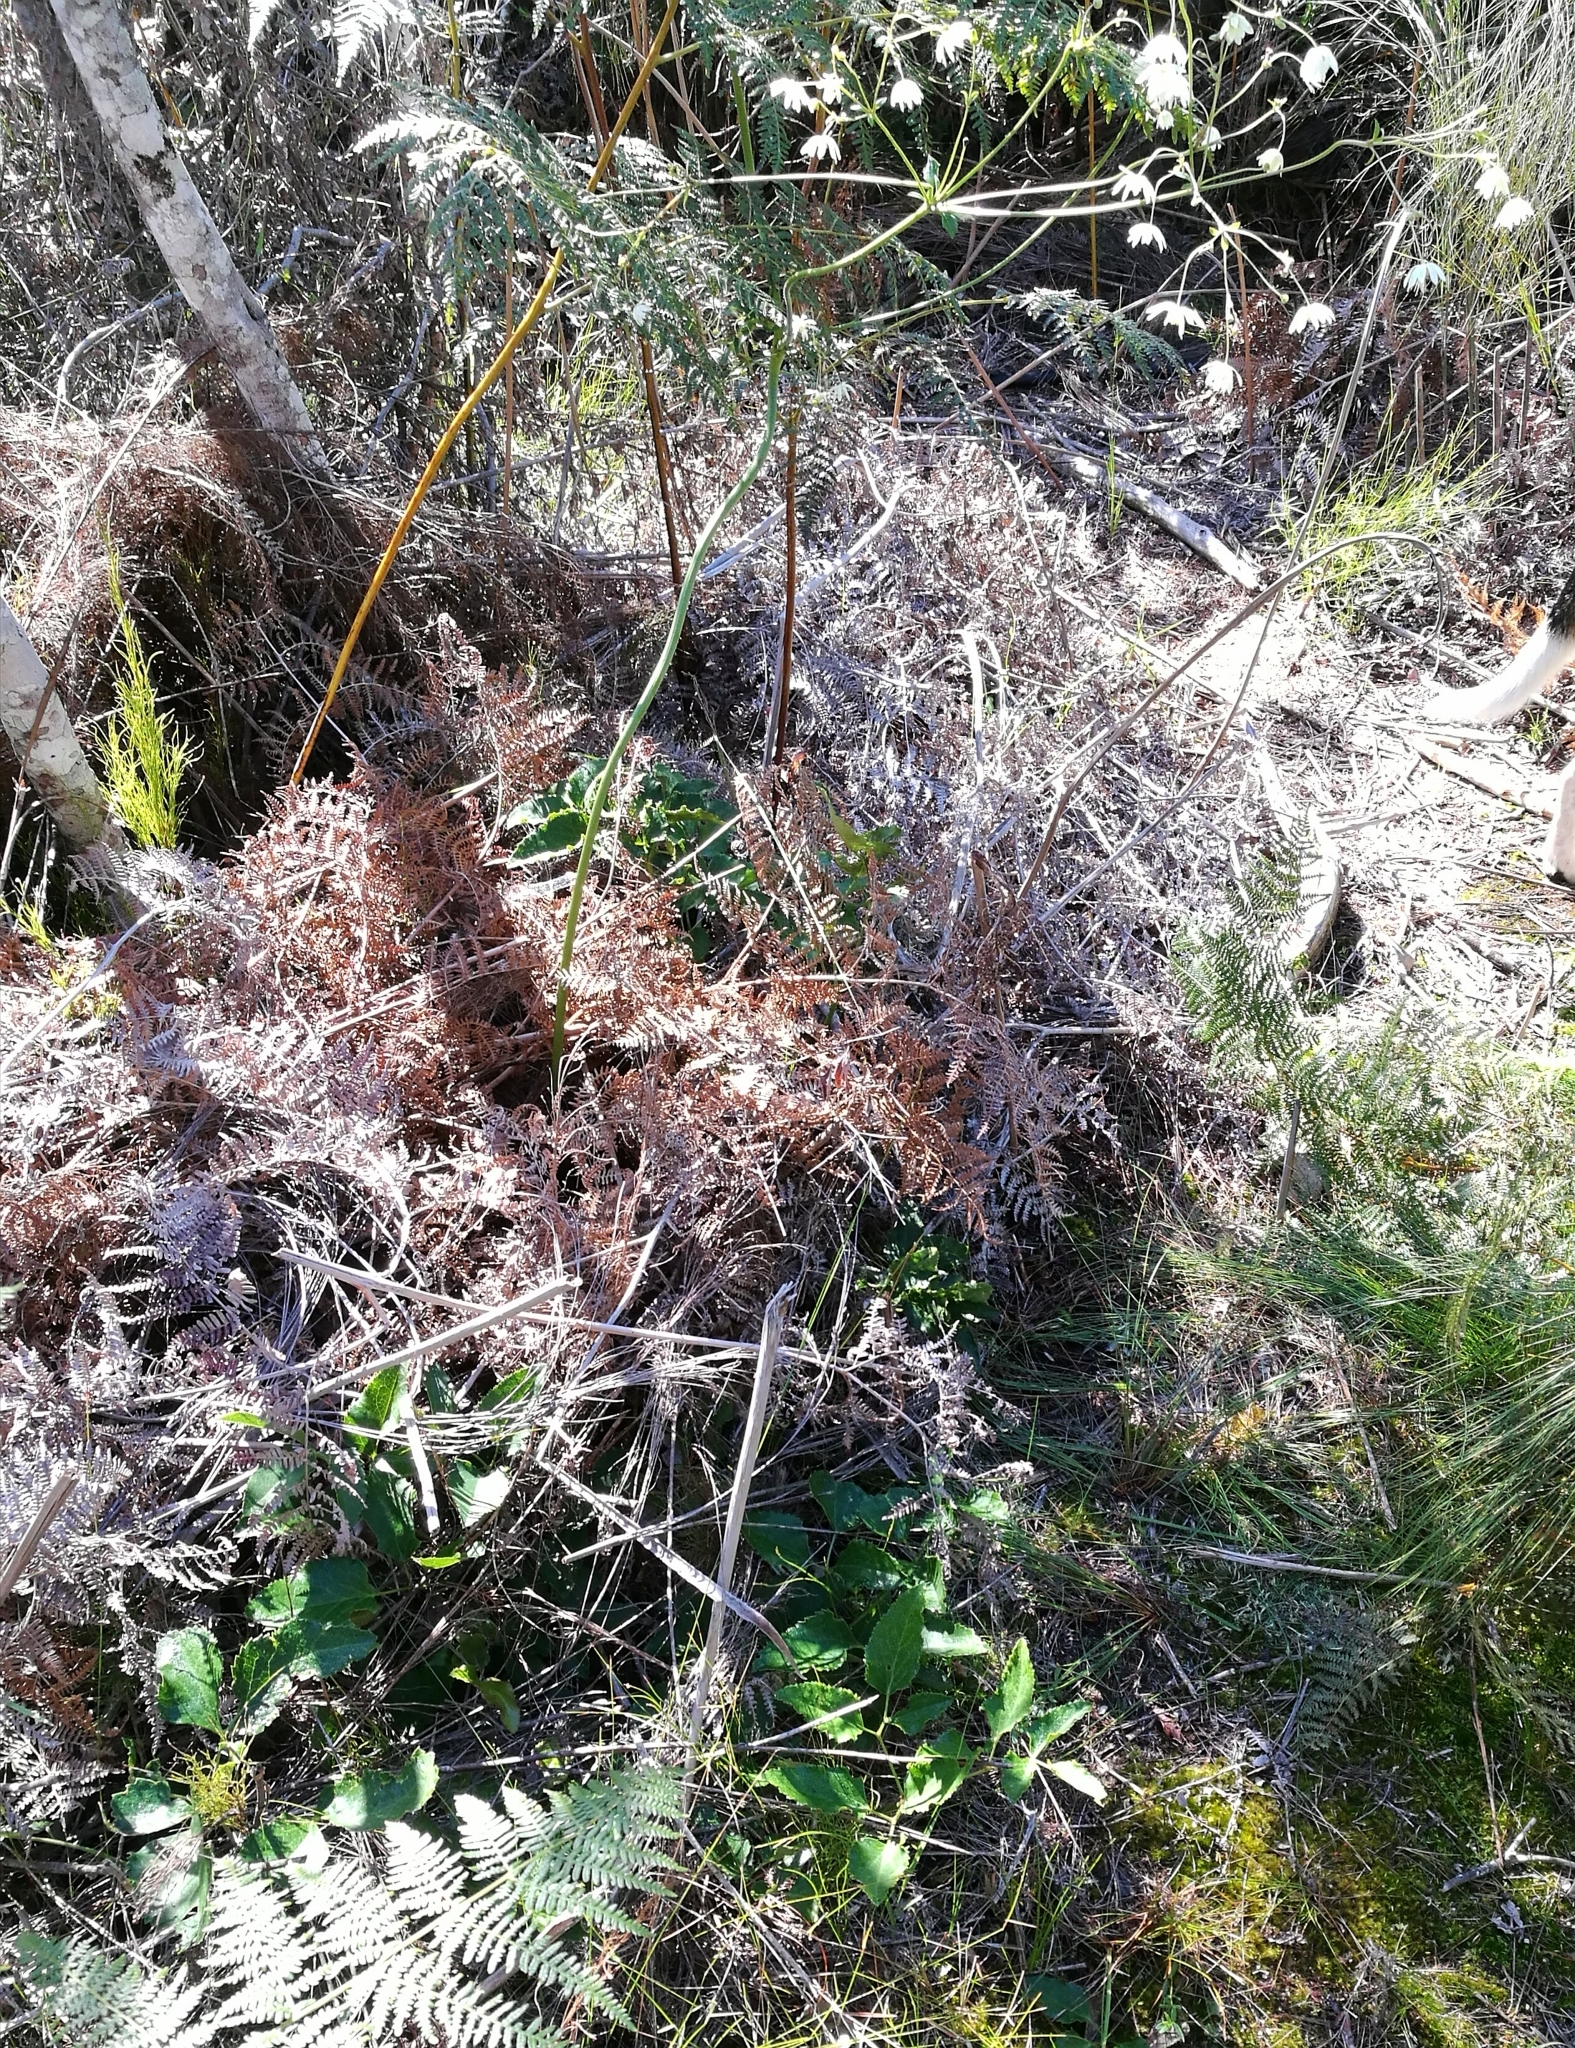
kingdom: Plantae
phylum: Tracheophyta
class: Magnoliopsida
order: Ranunculales
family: Ranunculaceae
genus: Knowltonia
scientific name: Knowltonia vesicatoria
